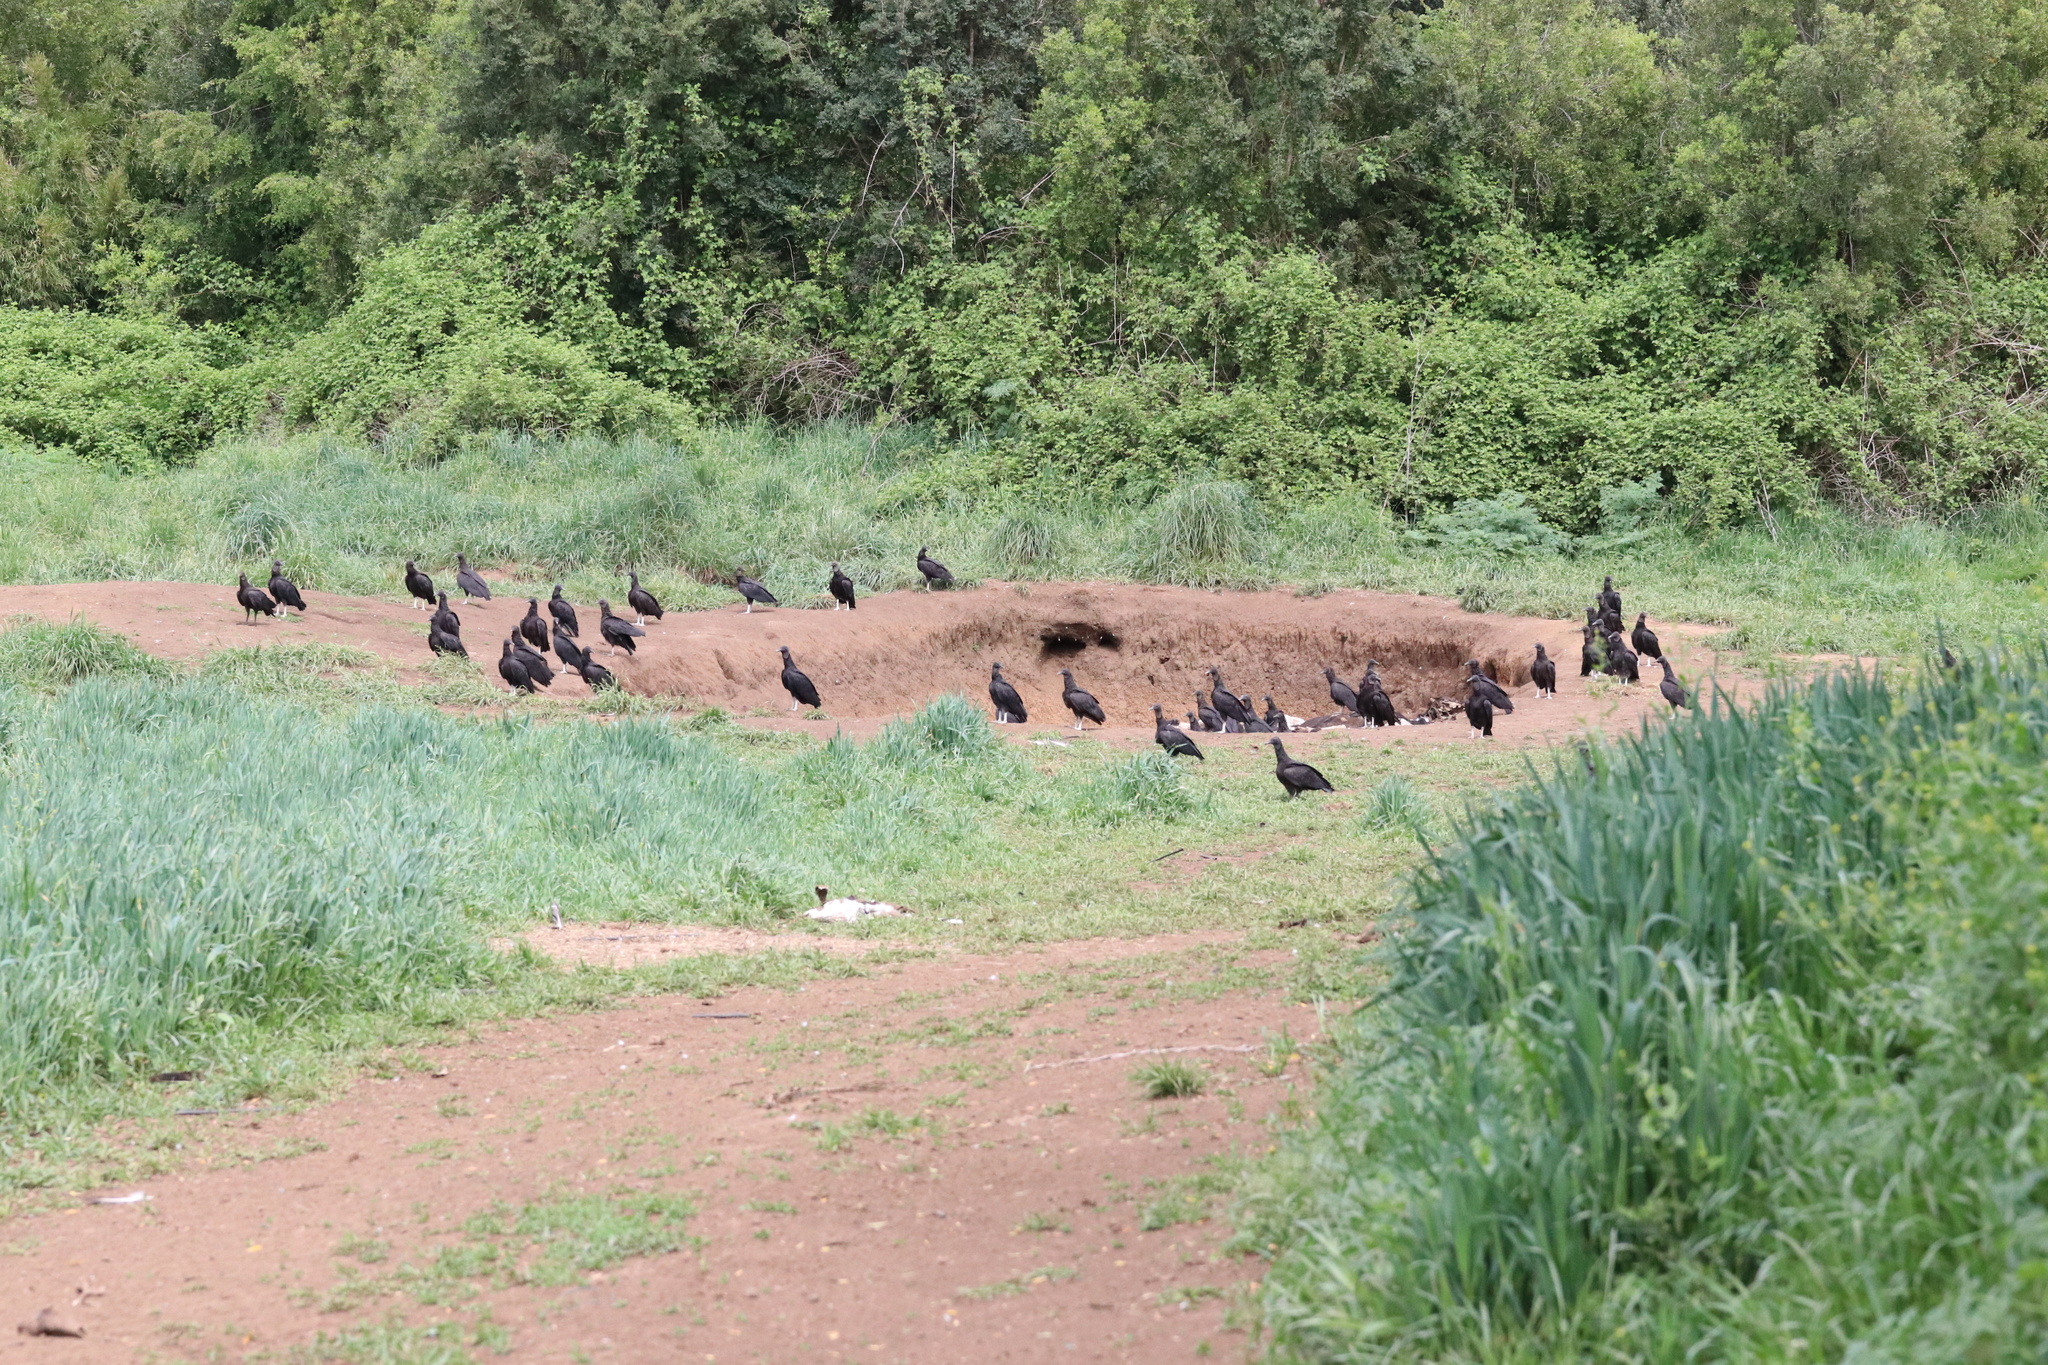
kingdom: Animalia
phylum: Chordata
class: Aves
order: Accipitriformes
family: Cathartidae
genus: Coragyps
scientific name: Coragyps atratus
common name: Black vulture
